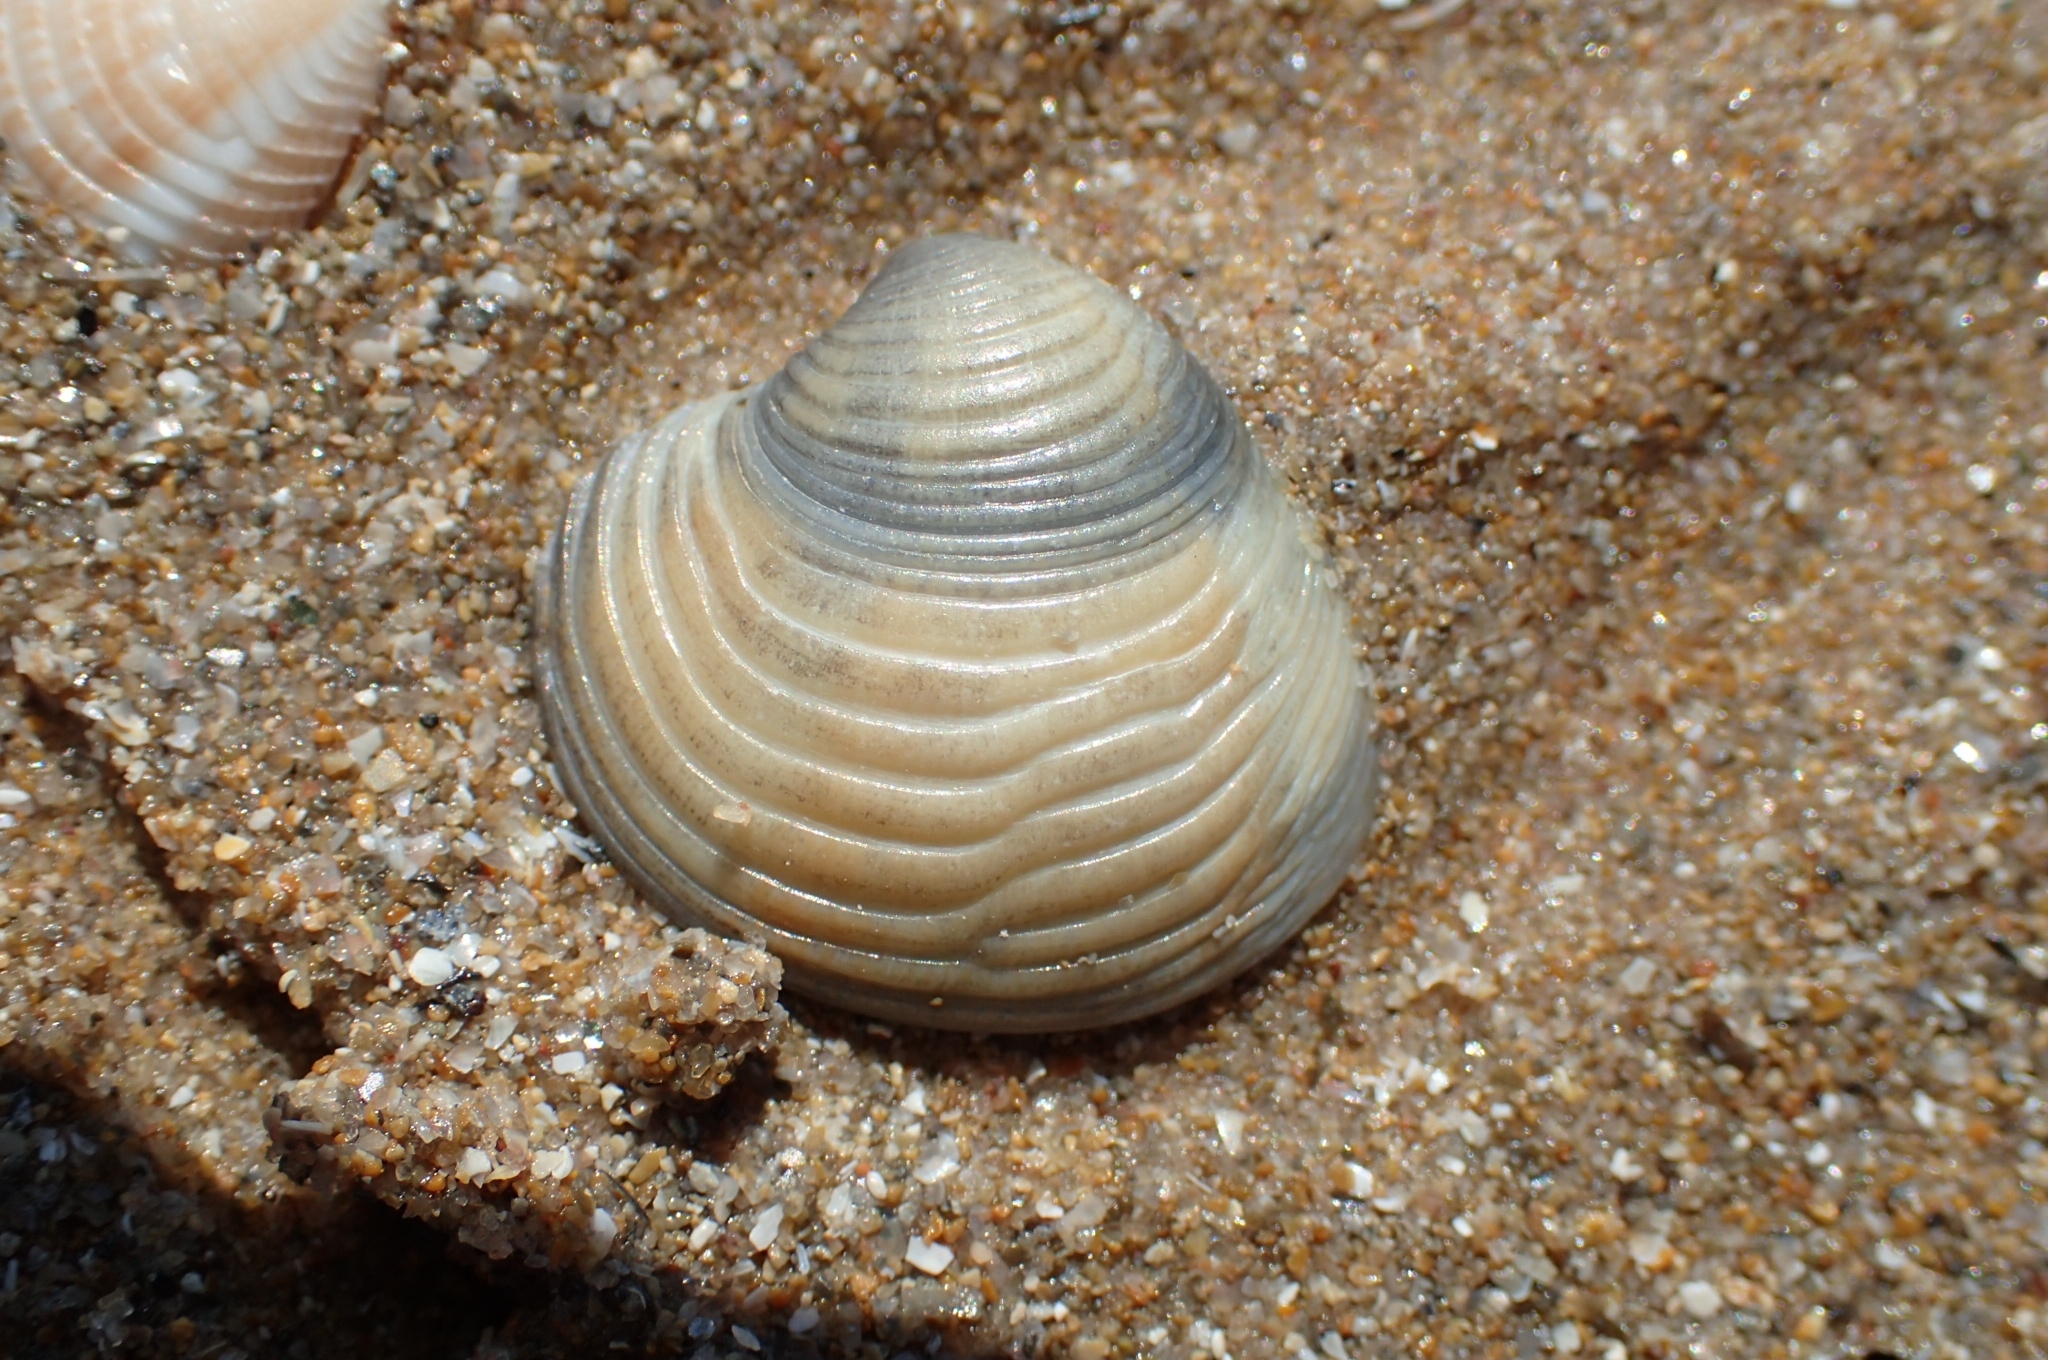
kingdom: Animalia
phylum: Mollusca
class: Bivalvia
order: Venerida
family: Veneridae
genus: Chamelea
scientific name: Chamelea gallina
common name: Chicken venus
